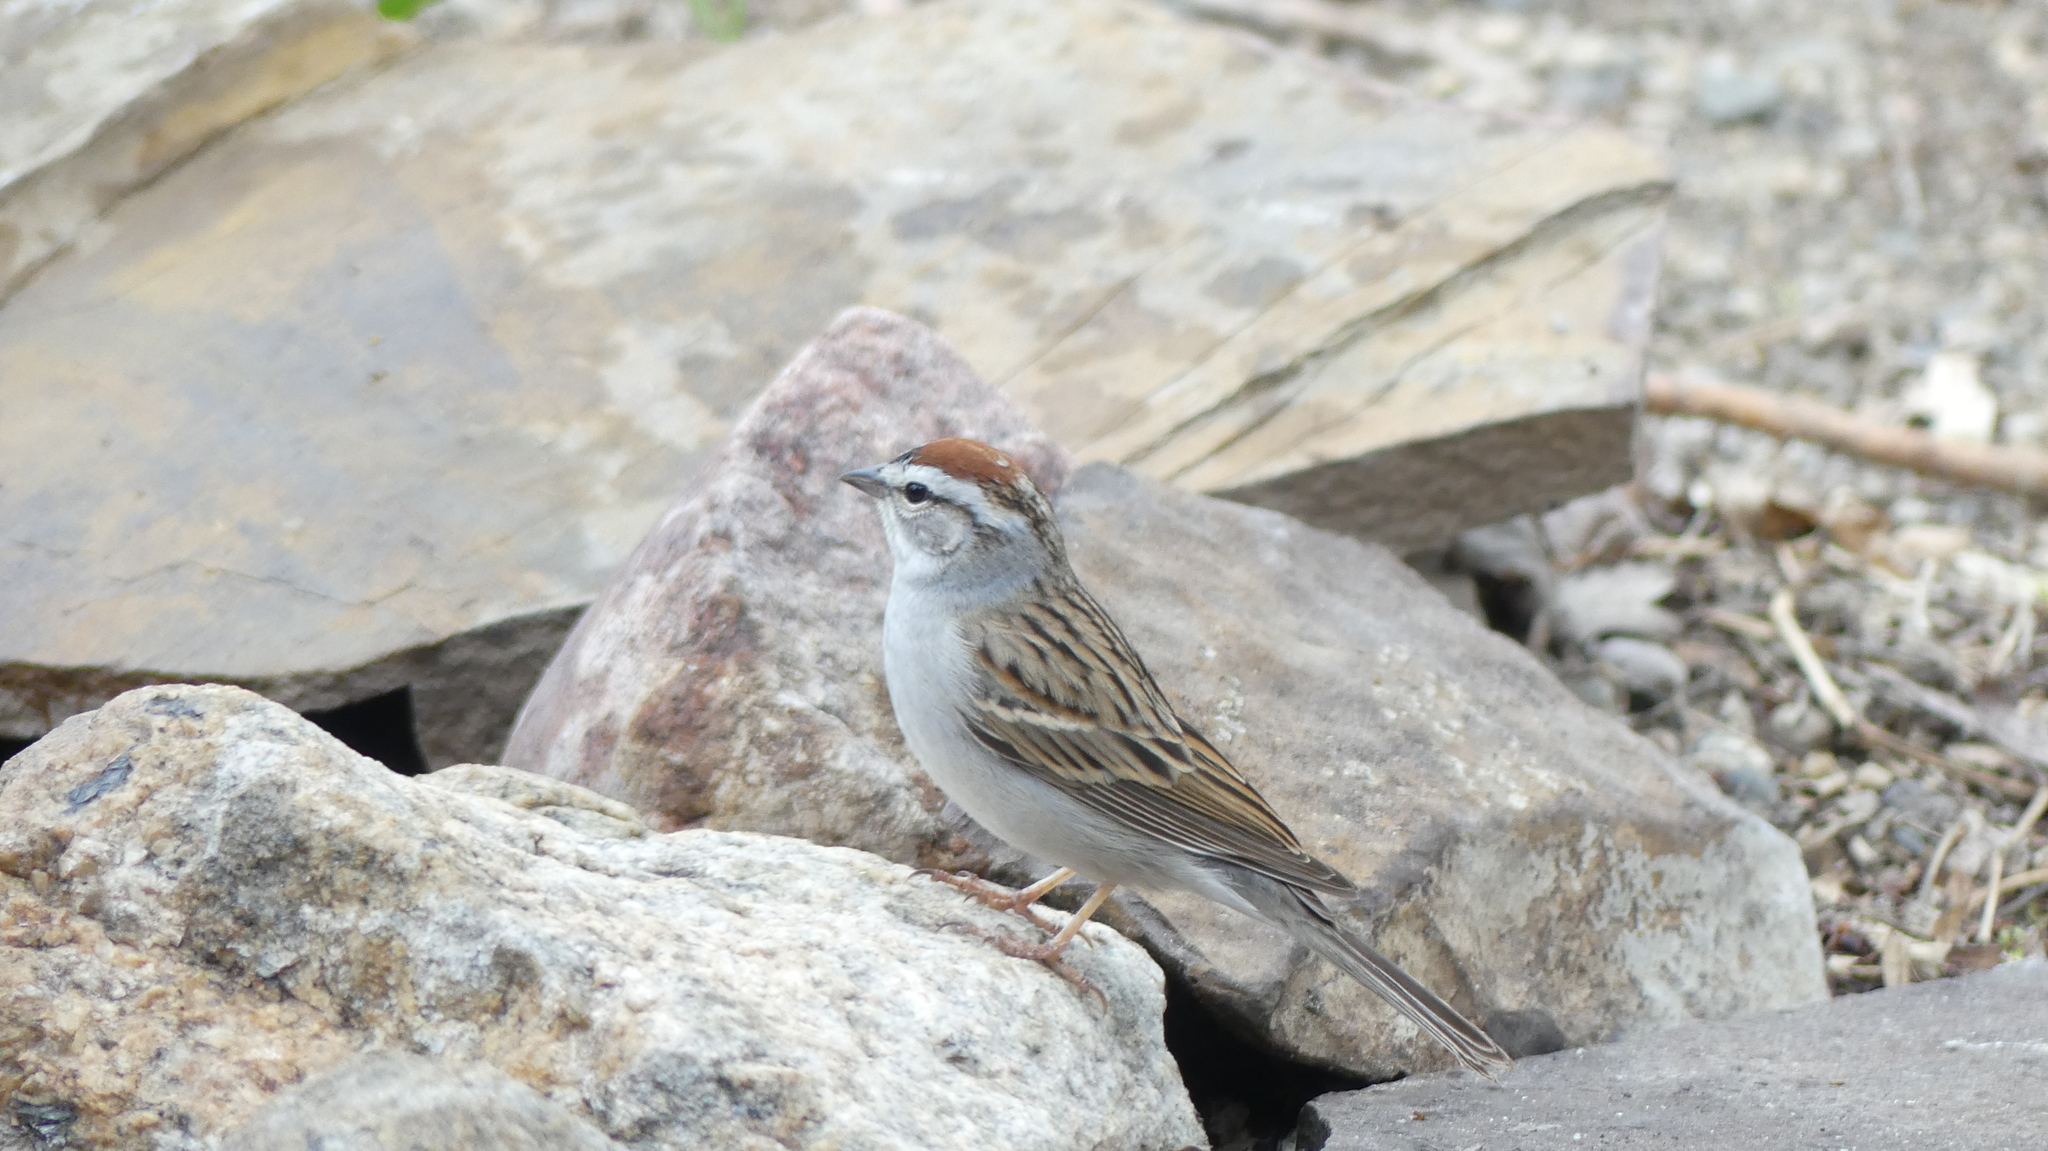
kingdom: Animalia
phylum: Chordata
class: Aves
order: Passeriformes
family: Passerellidae
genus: Spizella
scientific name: Spizella passerina
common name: Chipping sparrow
